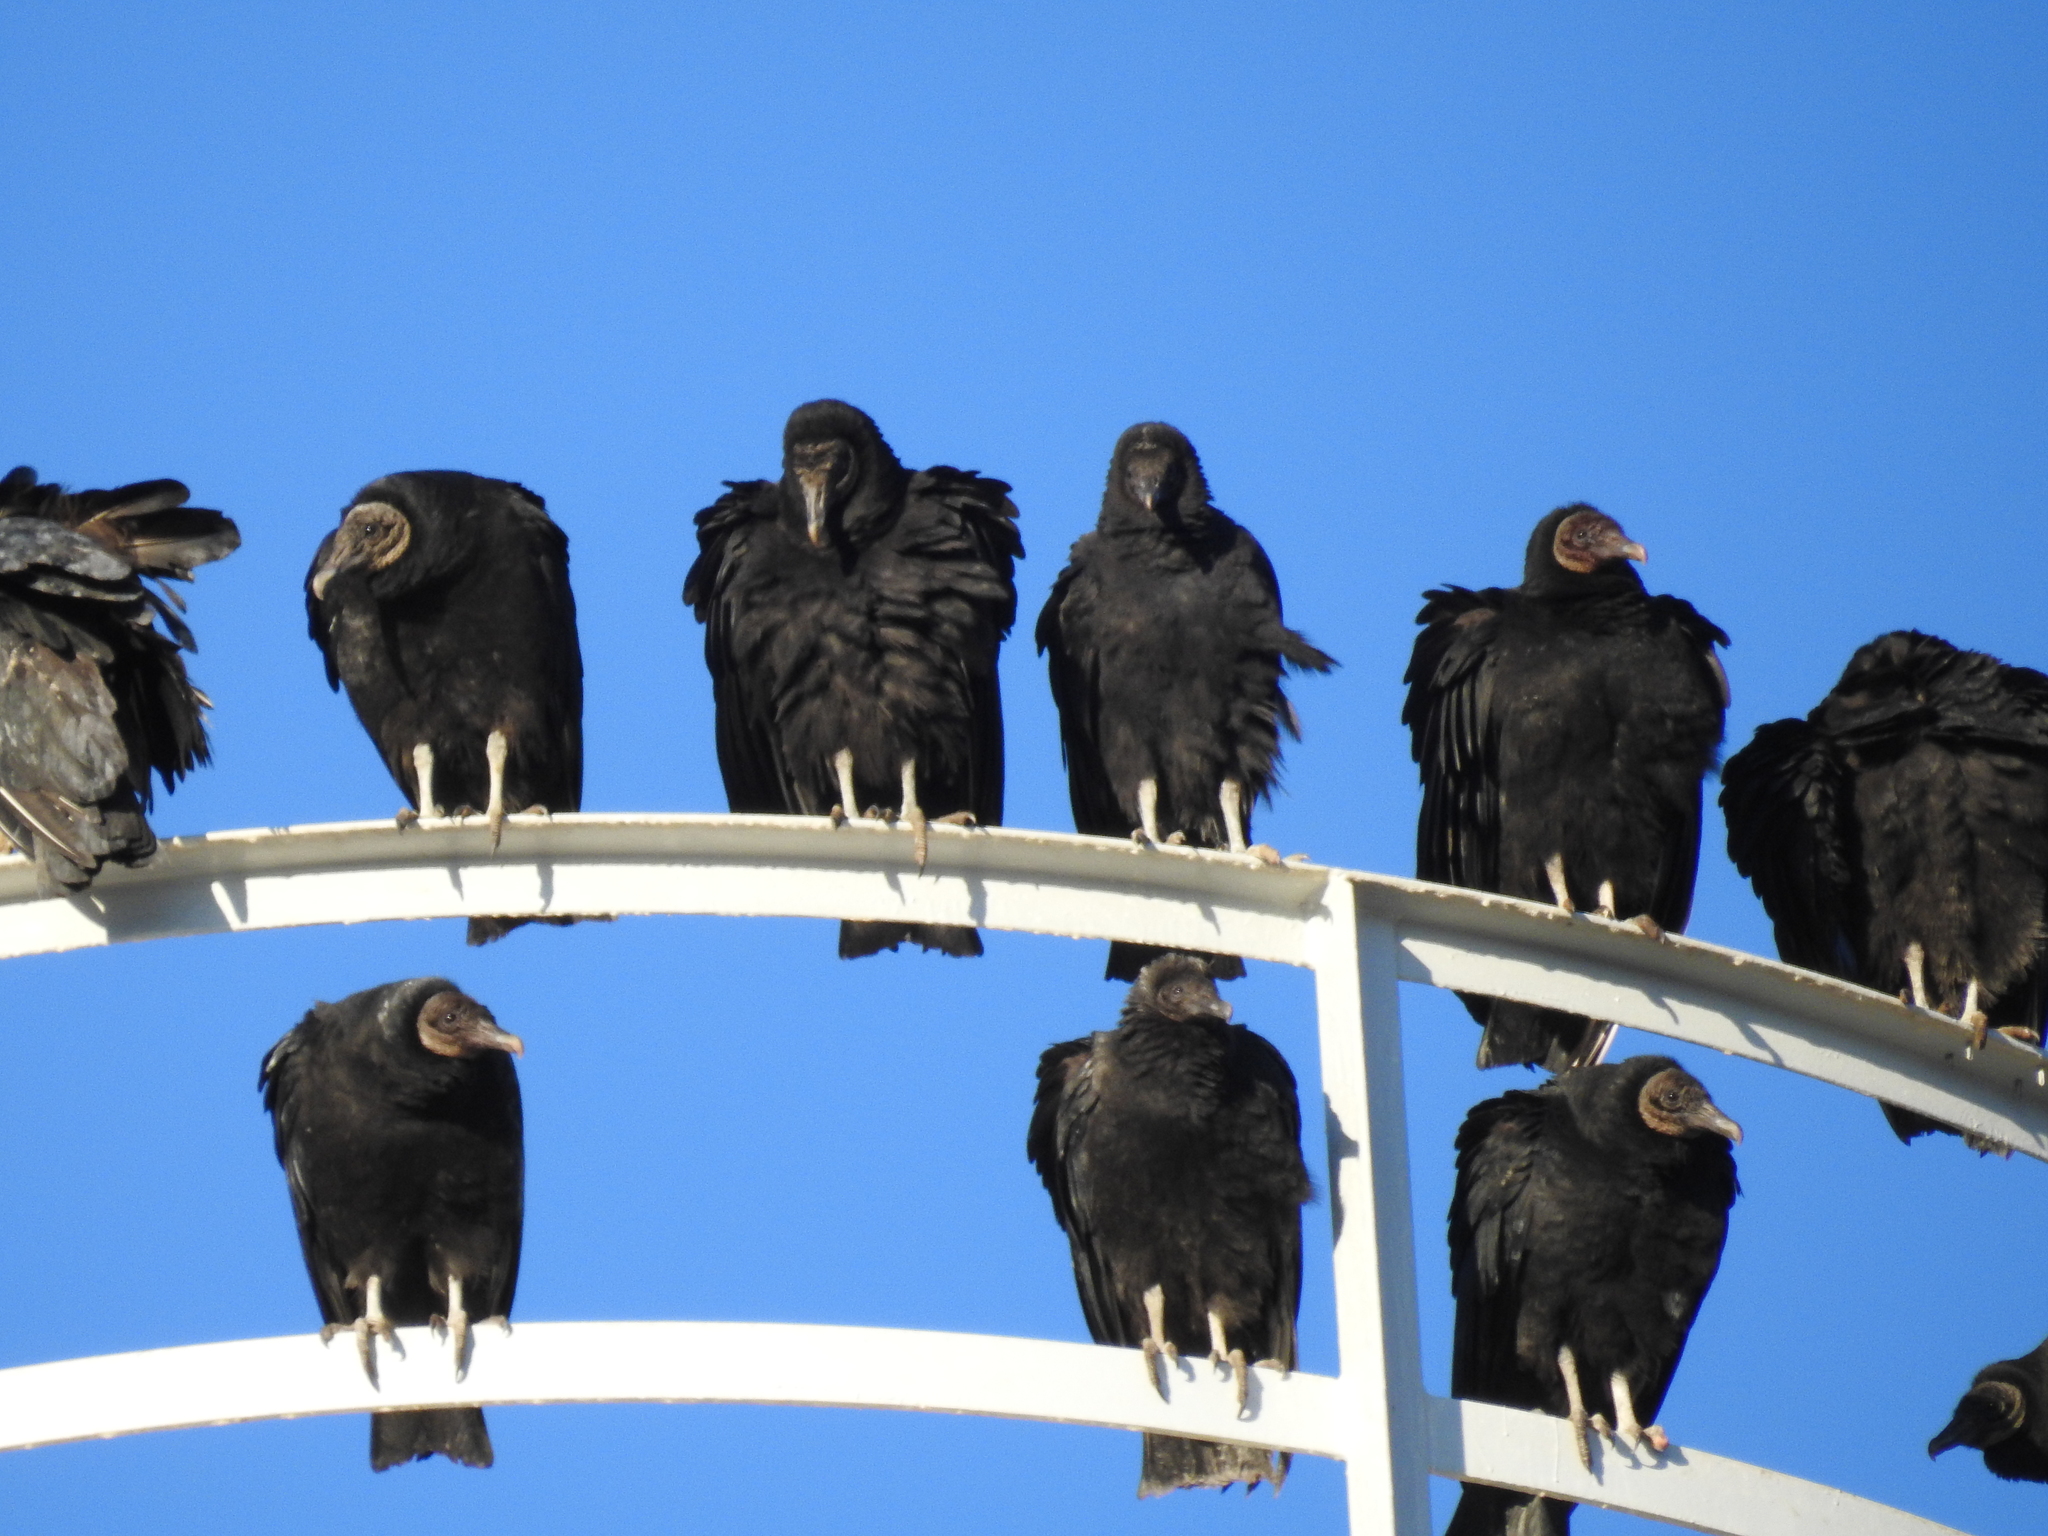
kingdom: Animalia
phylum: Chordata
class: Aves
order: Accipitriformes
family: Cathartidae
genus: Coragyps
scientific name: Coragyps atratus
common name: Black vulture
